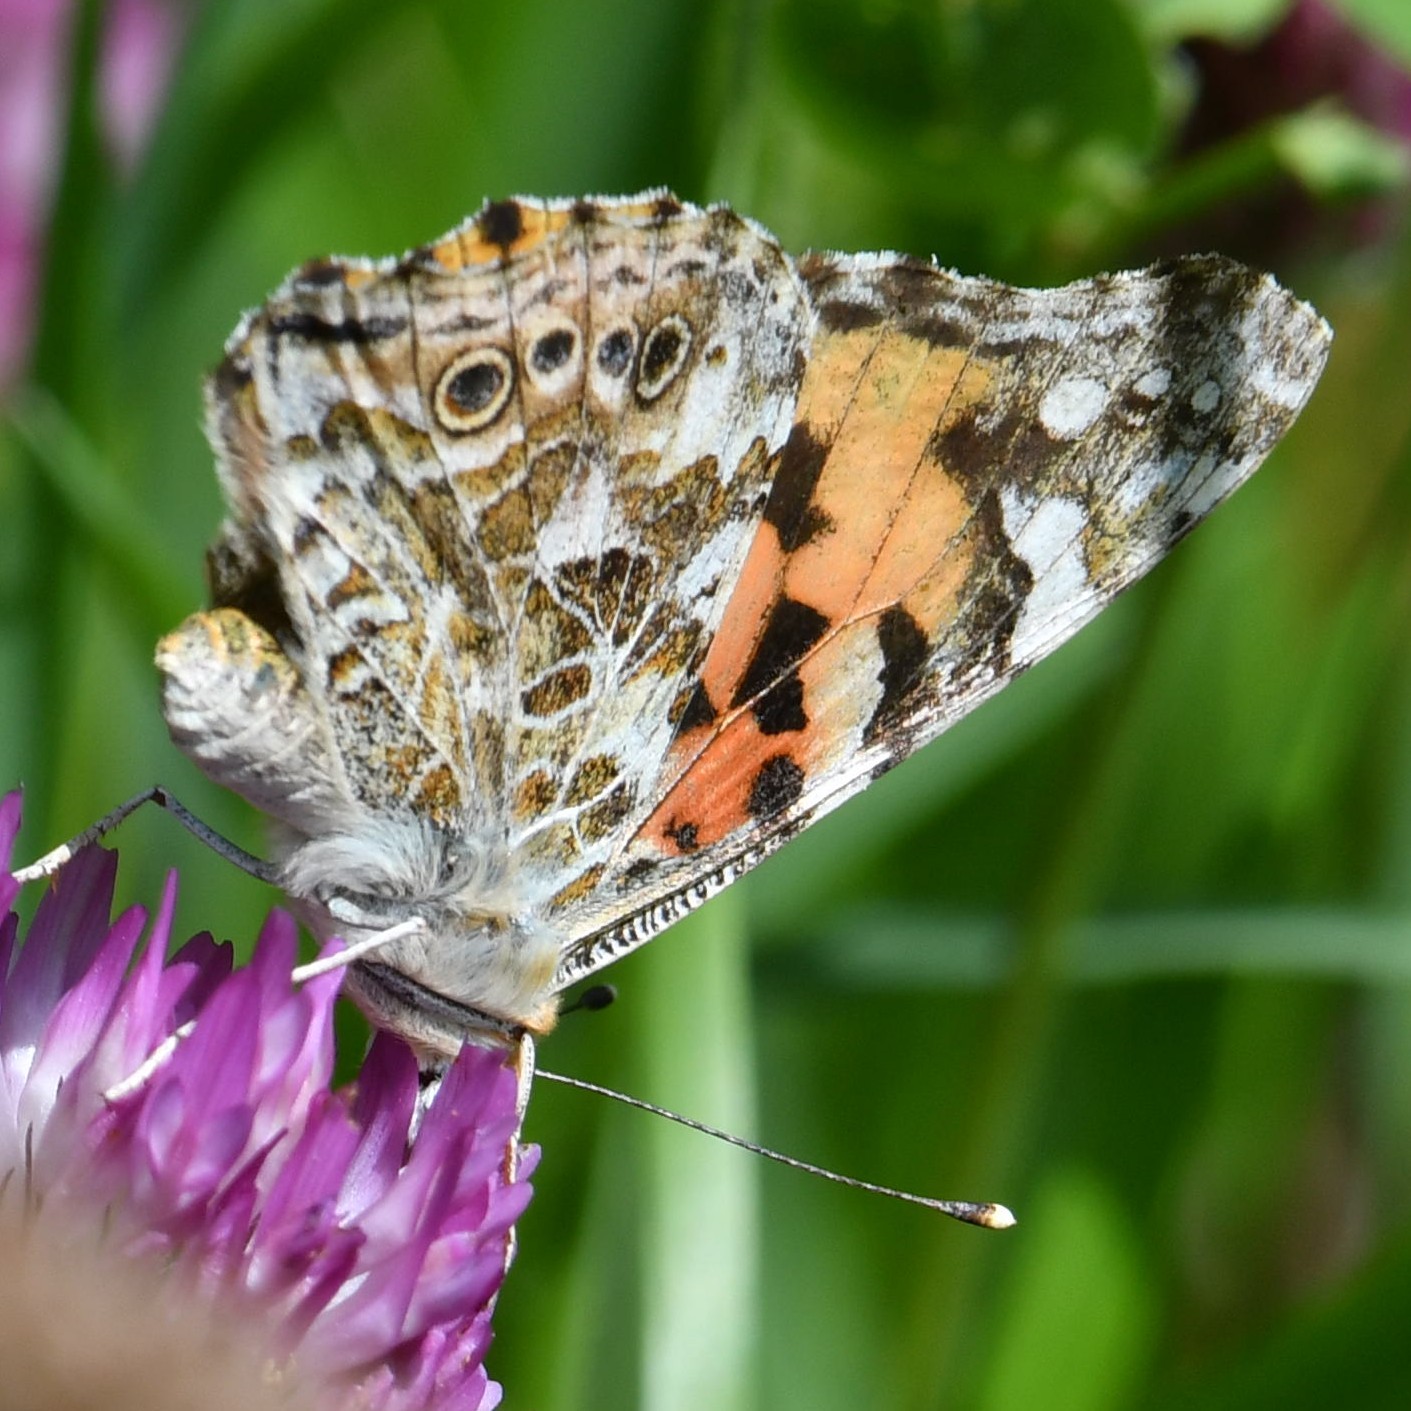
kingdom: Animalia
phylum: Arthropoda
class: Insecta
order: Lepidoptera
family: Nymphalidae
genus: Vanessa
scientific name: Vanessa cardui
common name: Painted lady
